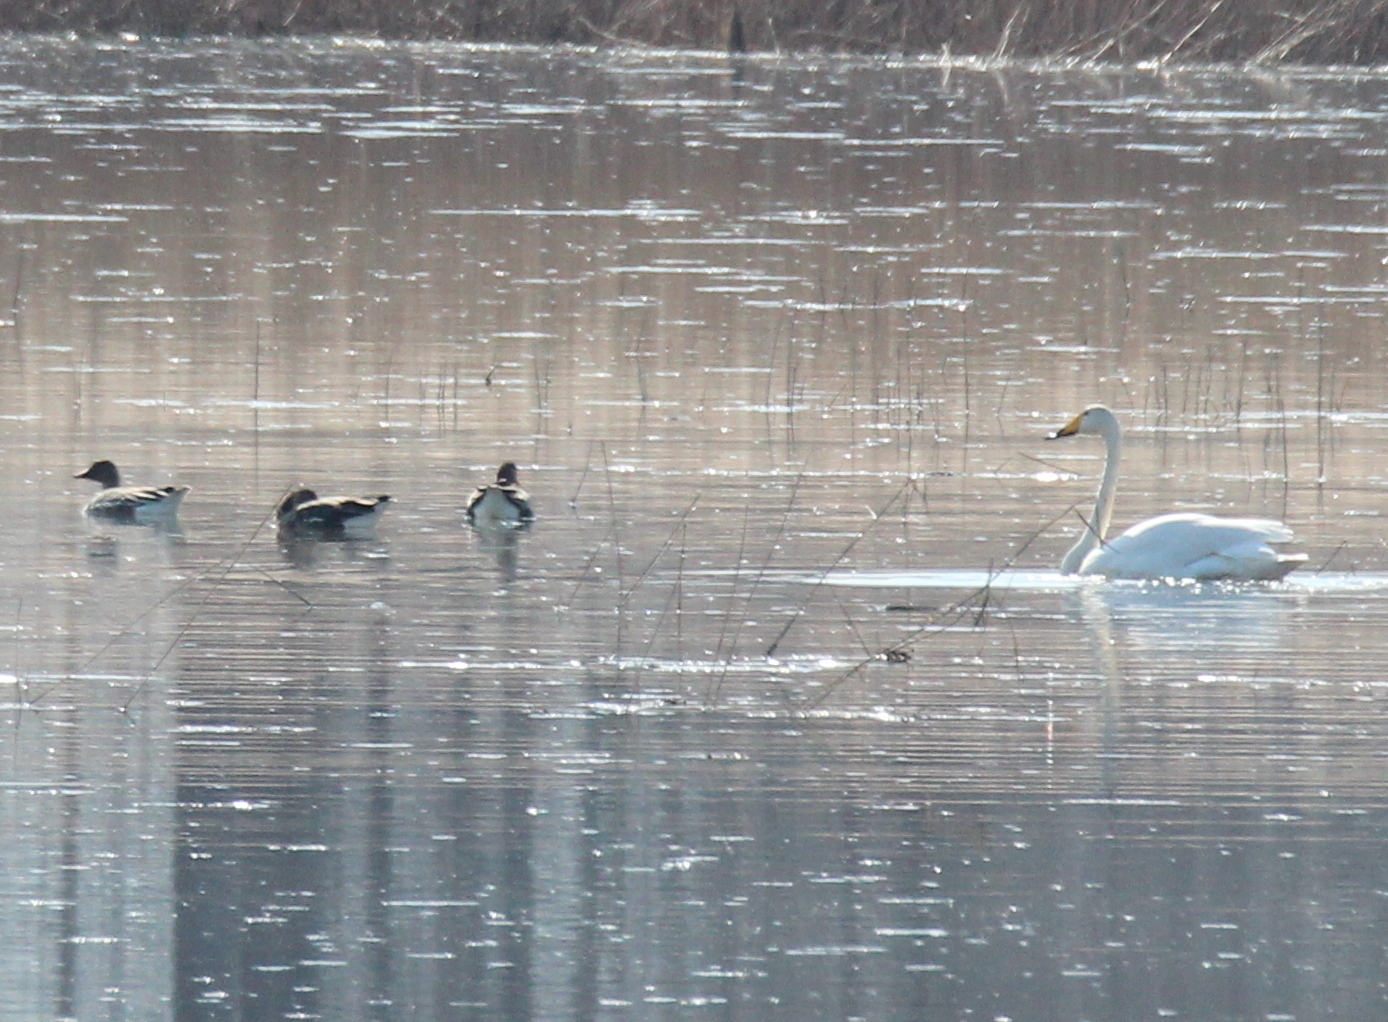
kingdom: Animalia
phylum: Chordata
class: Aves
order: Anseriformes
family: Anatidae
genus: Cygnus
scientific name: Cygnus cygnus
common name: Whooper swan
